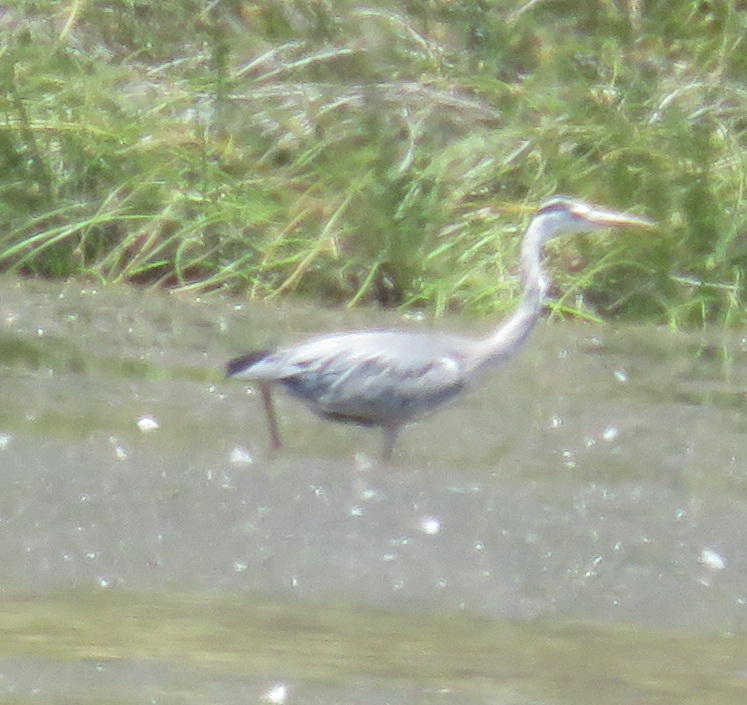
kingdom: Animalia
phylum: Chordata
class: Aves
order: Pelecaniformes
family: Ardeidae
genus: Ardea
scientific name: Ardea cinerea
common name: Grey heron
